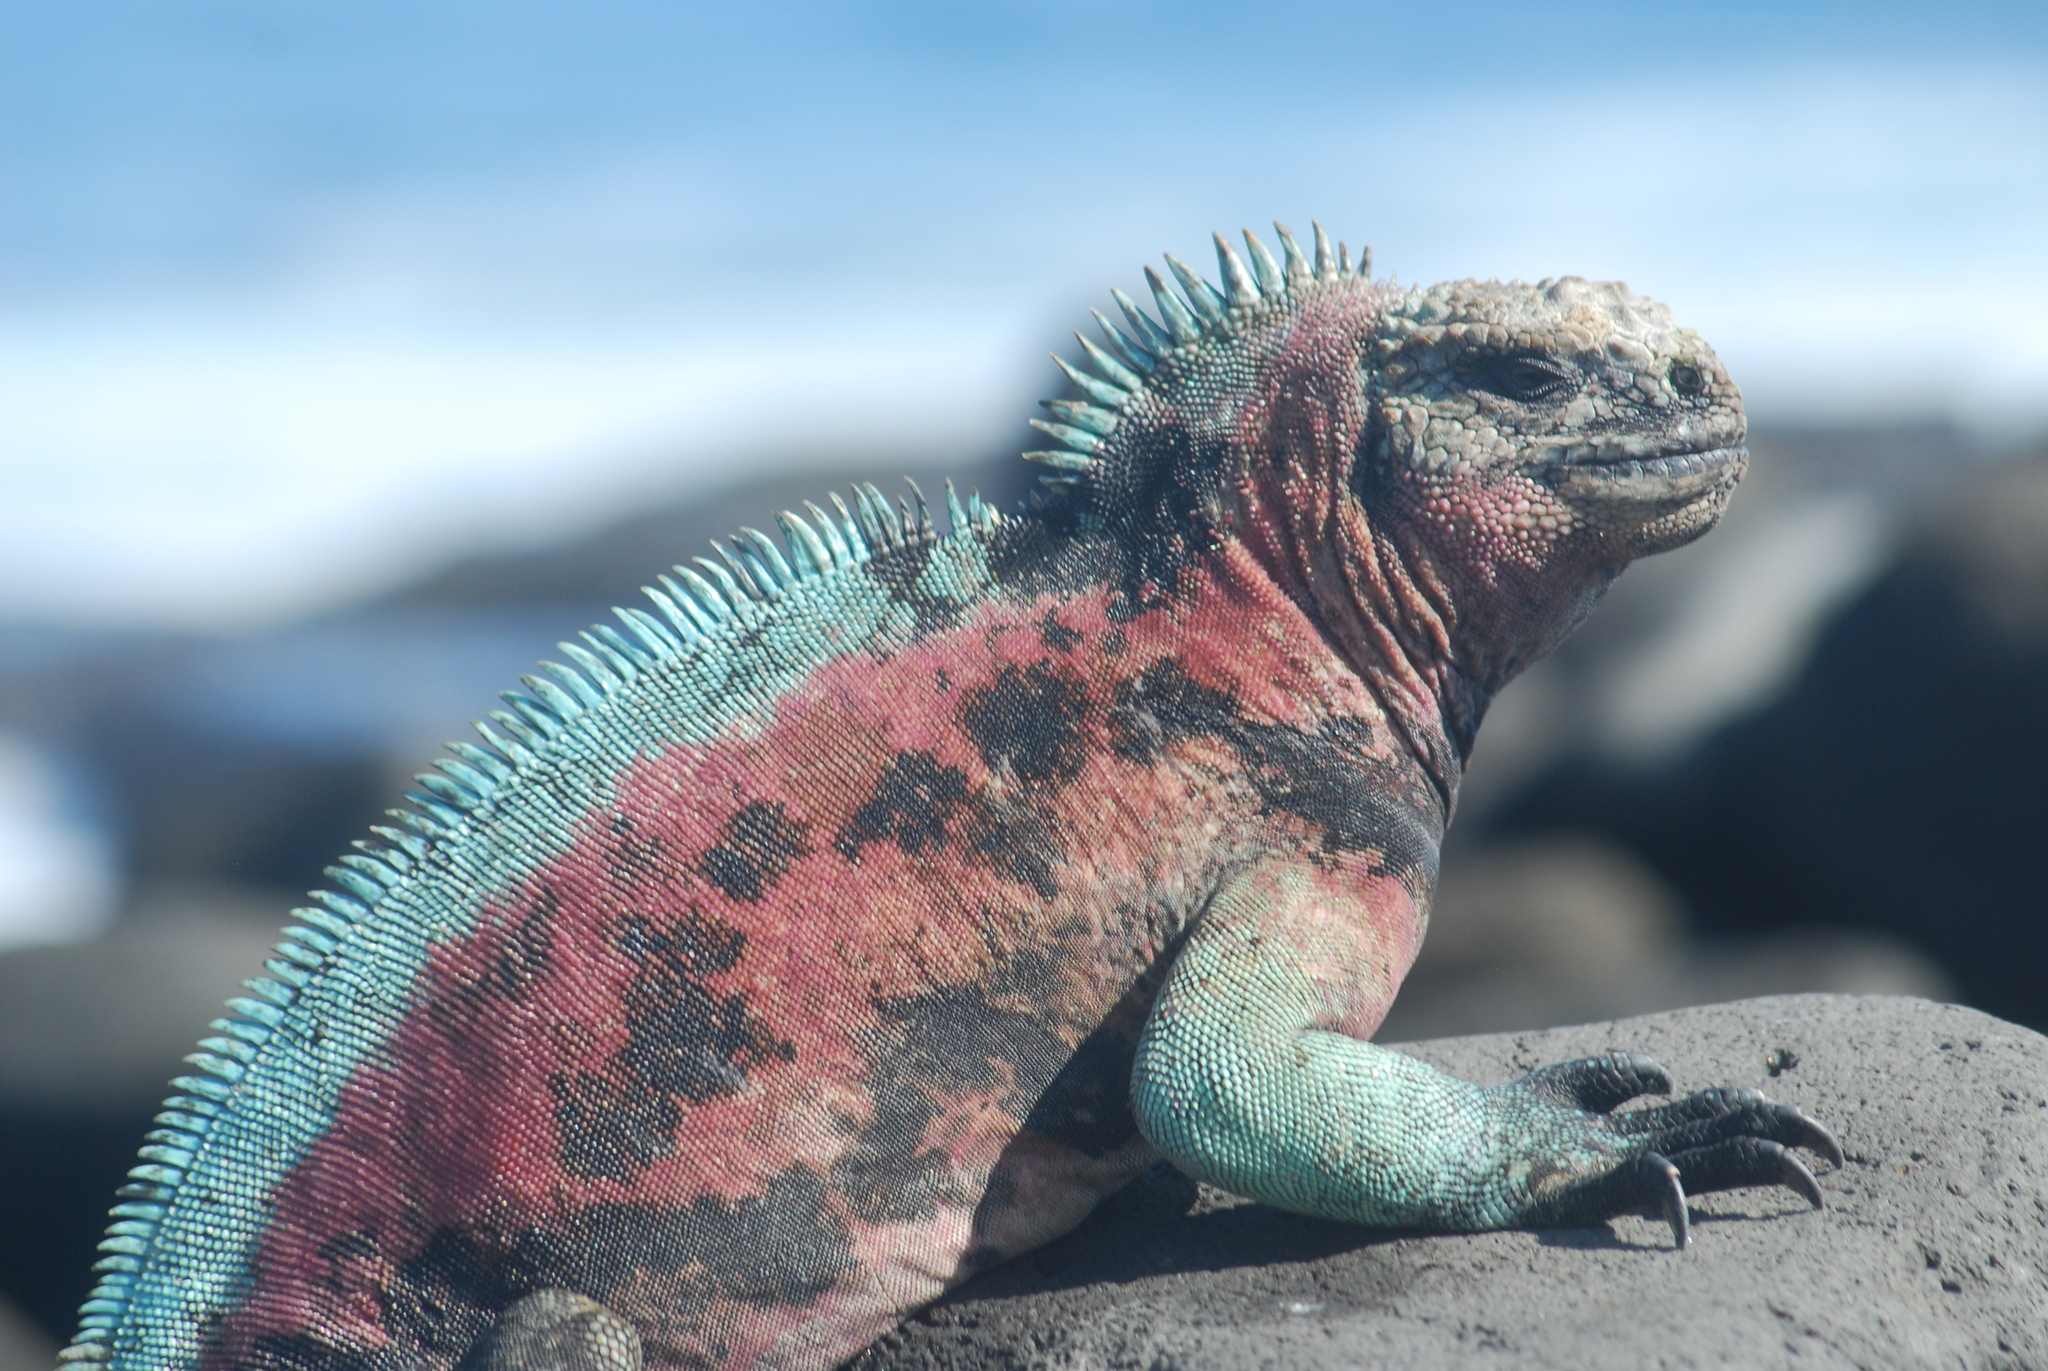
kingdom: Animalia
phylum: Chordata
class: Squamata
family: Iguanidae
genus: Amblyrhynchus
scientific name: Amblyrhynchus cristatus
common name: Marine iguana
